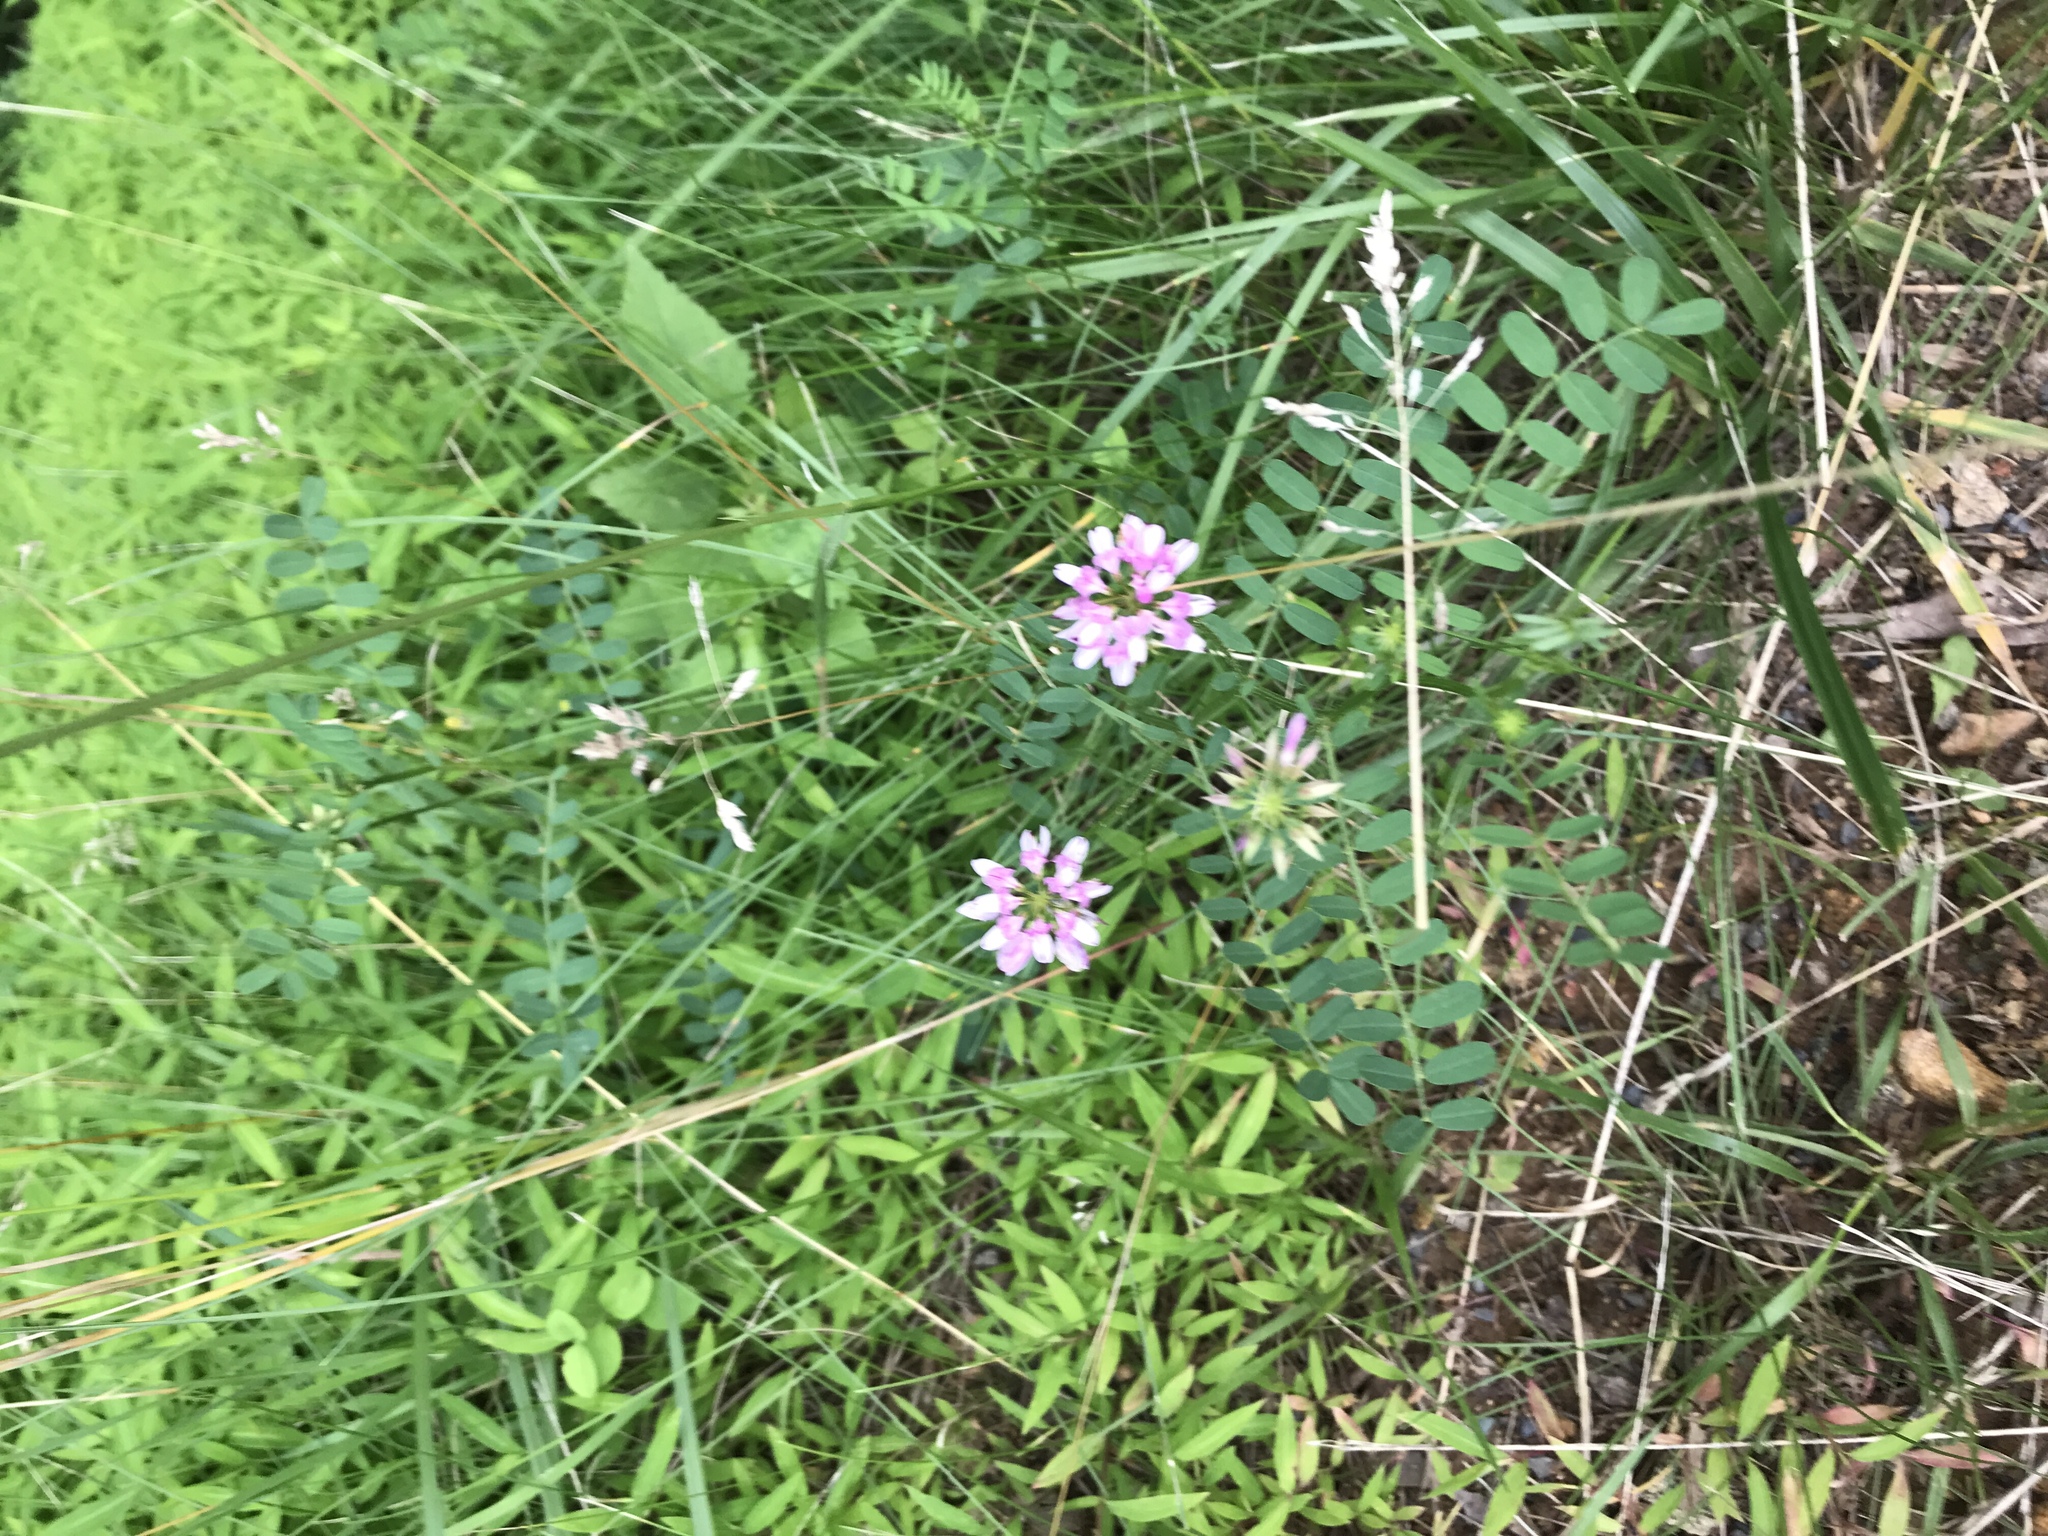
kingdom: Plantae
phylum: Tracheophyta
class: Magnoliopsida
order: Fabales
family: Fabaceae
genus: Coronilla
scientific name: Coronilla varia
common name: Crownvetch
